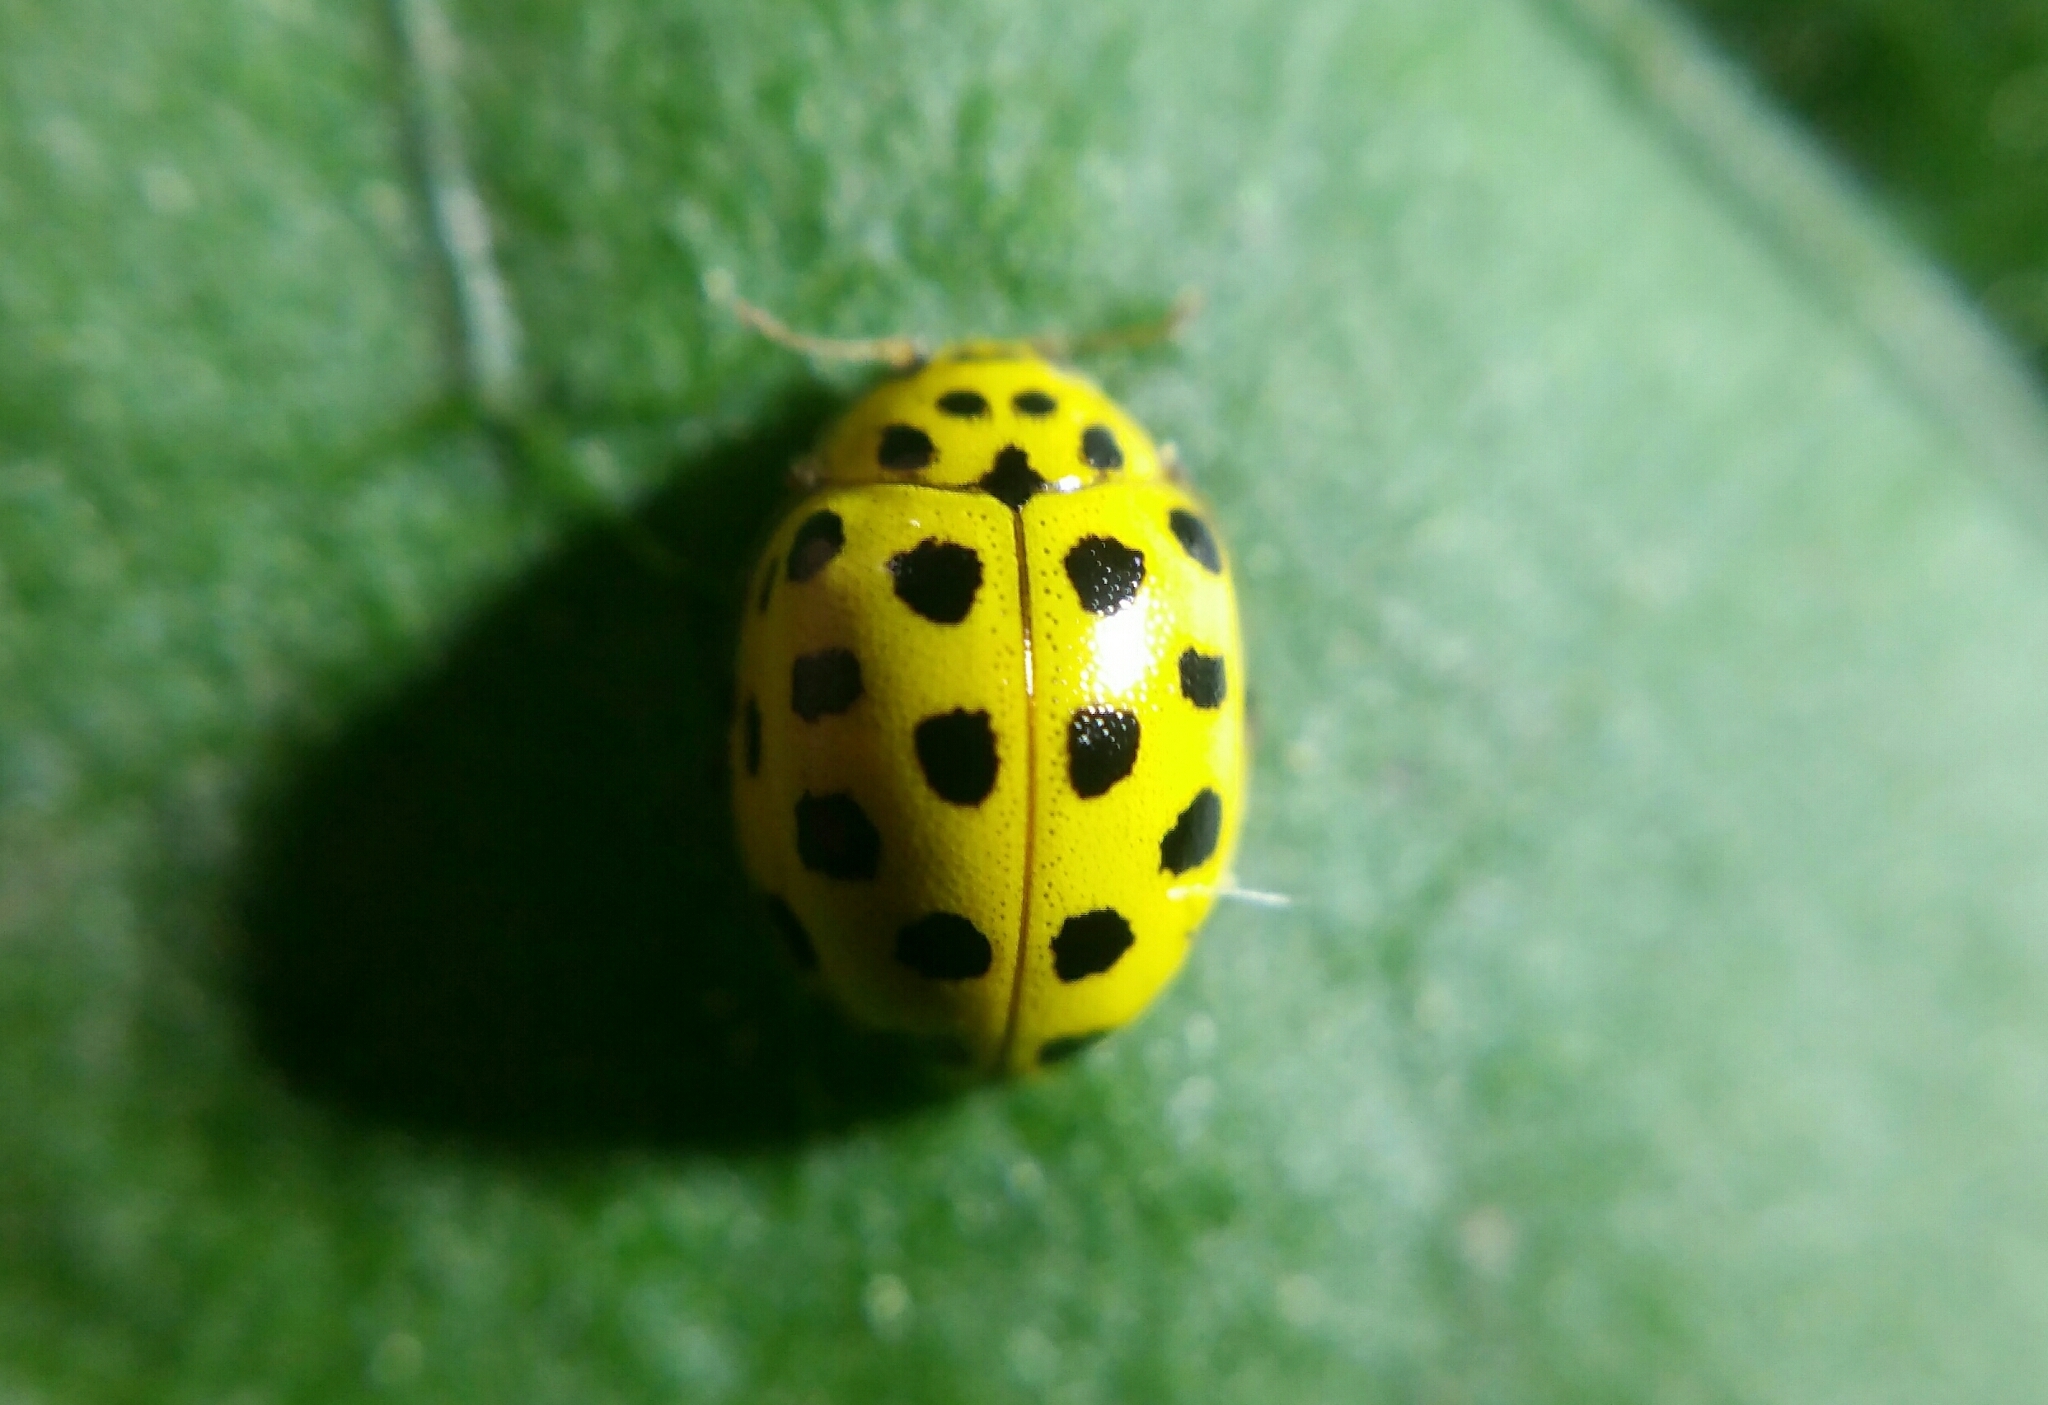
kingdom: Animalia
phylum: Arthropoda
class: Insecta
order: Coleoptera
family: Coccinellidae
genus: Psyllobora
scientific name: Psyllobora vigintiduopunctata
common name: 22-spot ladybird
